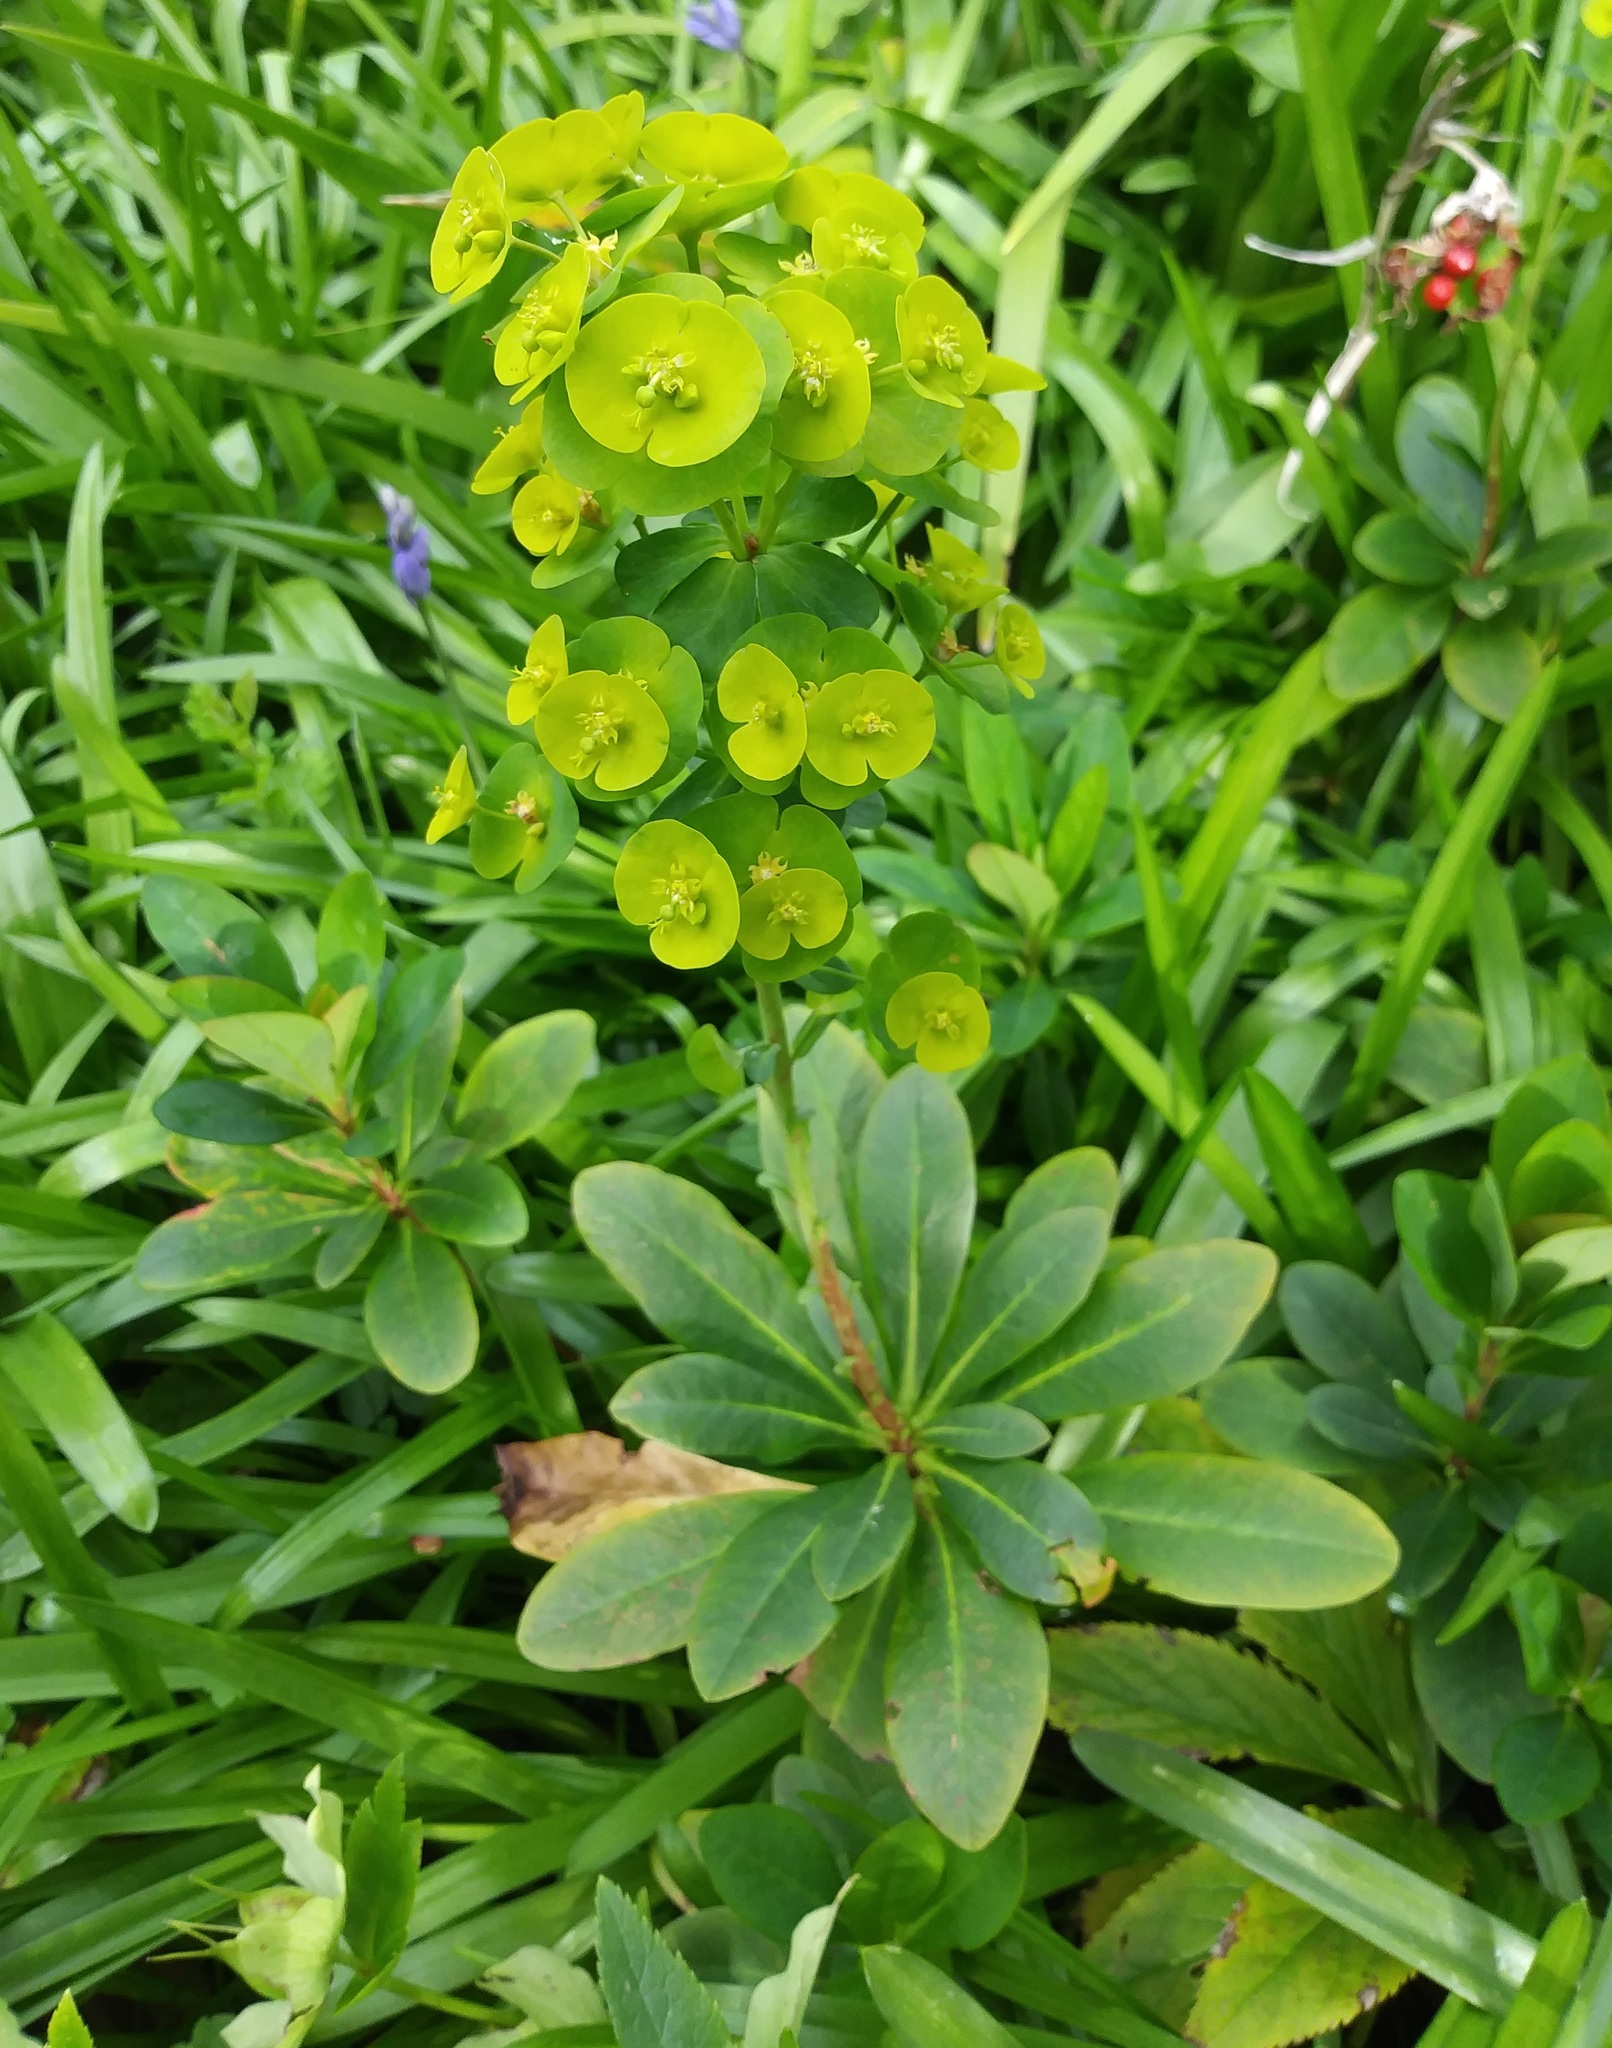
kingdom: Plantae
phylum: Tracheophyta
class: Magnoliopsida
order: Malpighiales
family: Euphorbiaceae
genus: Euphorbia
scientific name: Euphorbia amygdaloides
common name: Wood spurge
